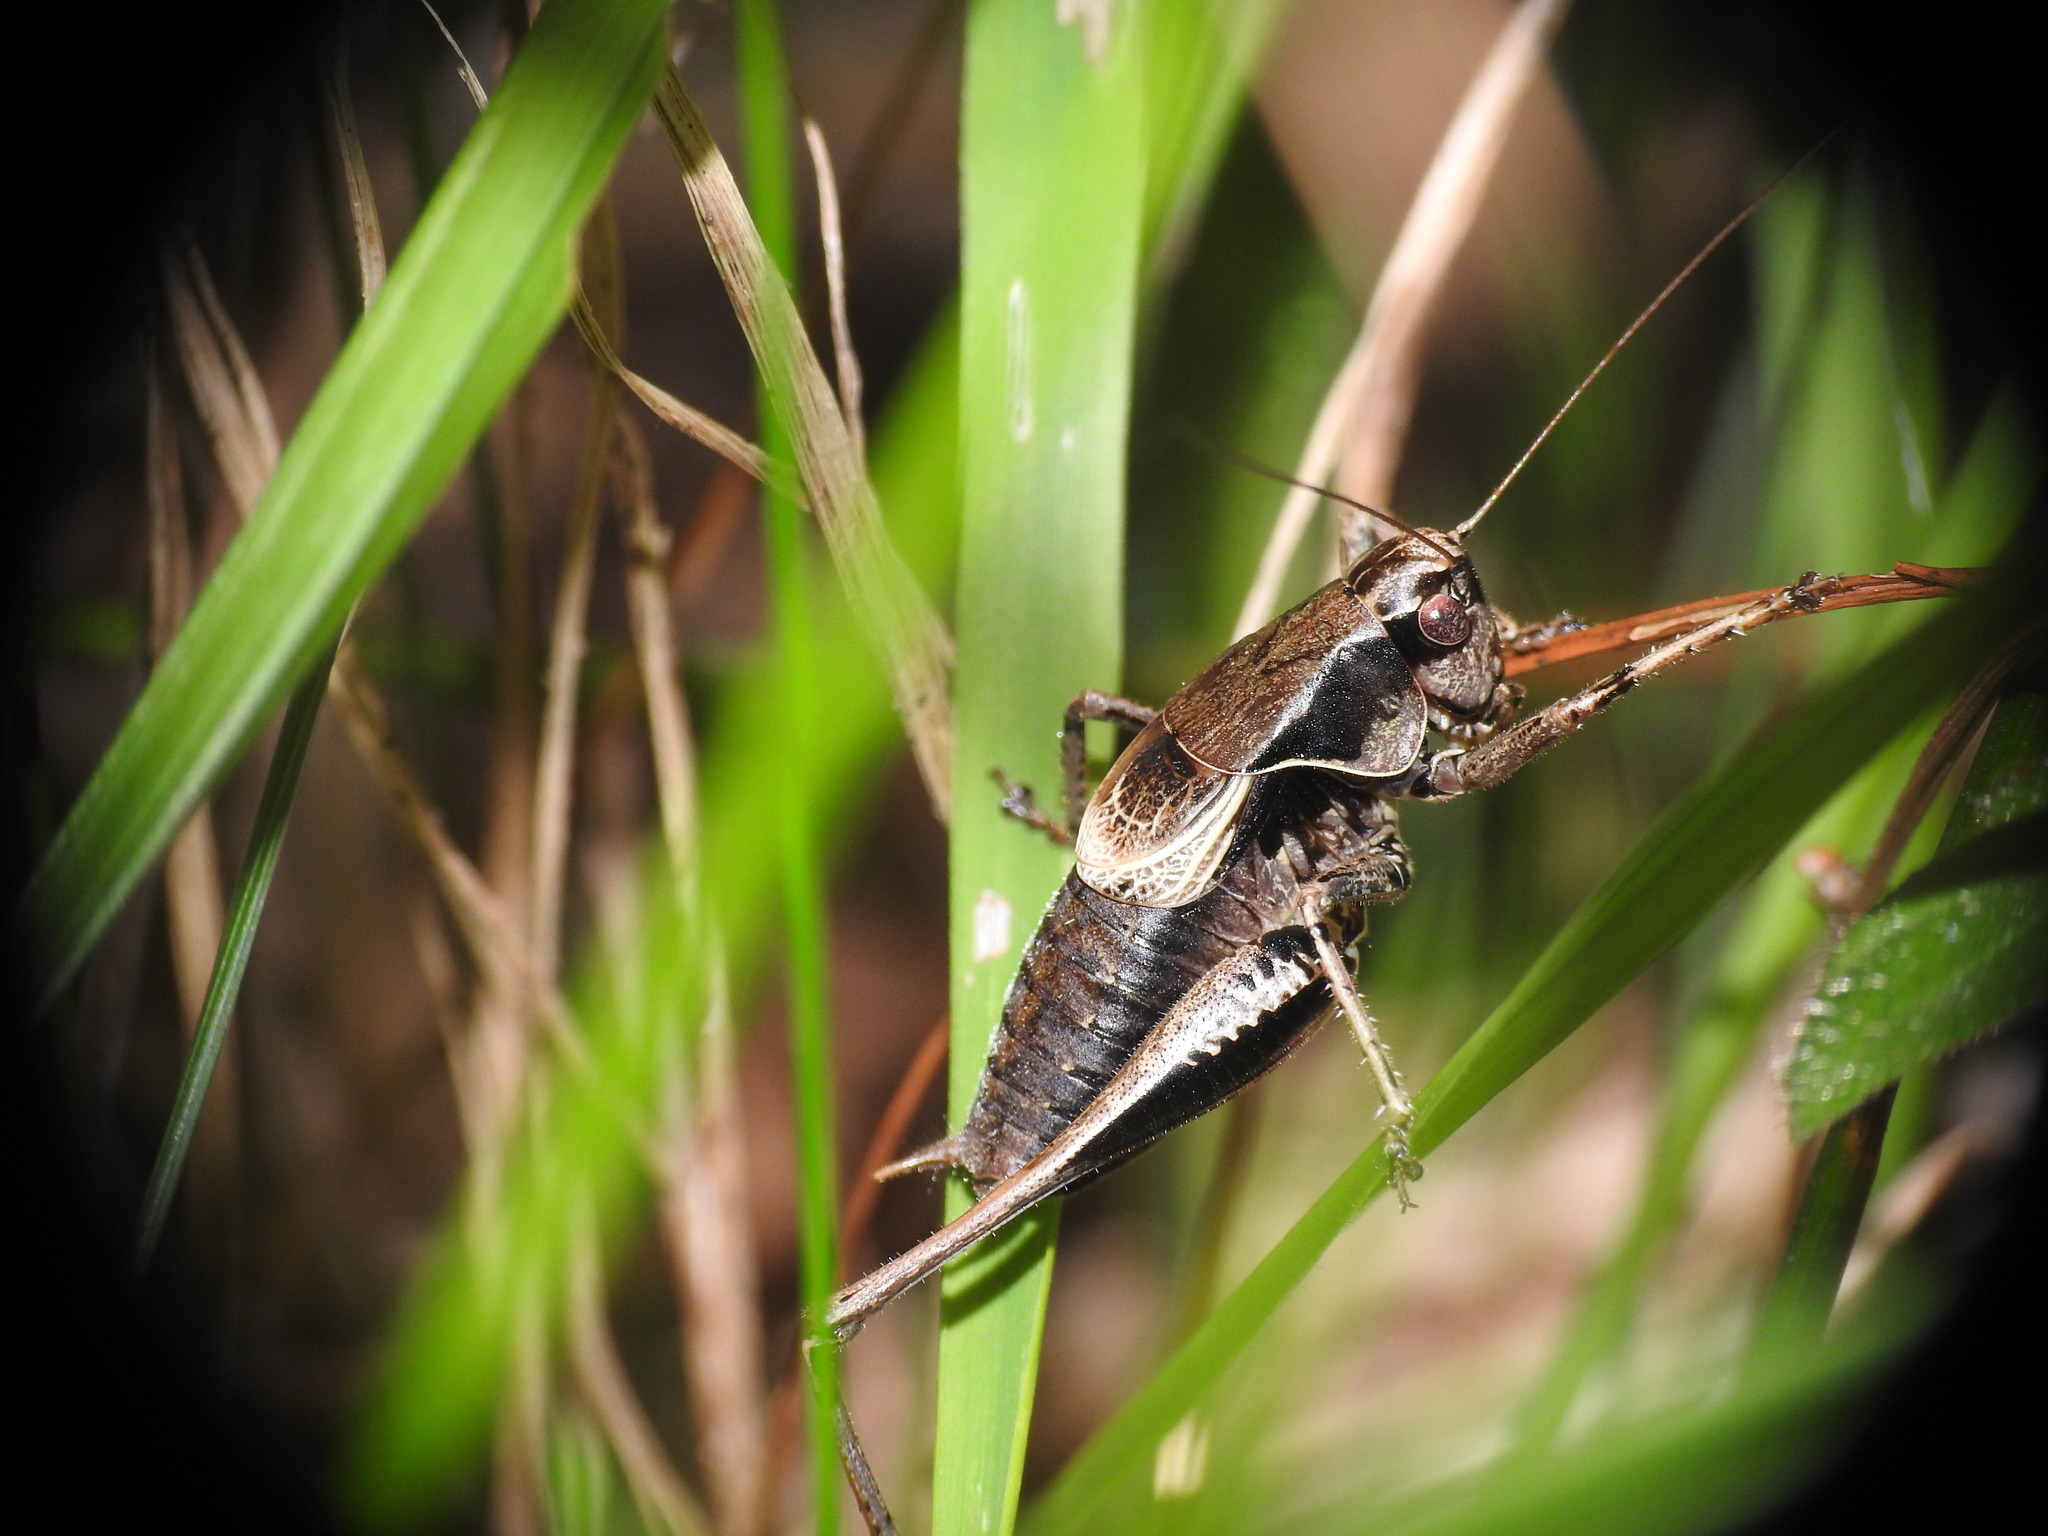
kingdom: Animalia
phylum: Arthropoda
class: Insecta
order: Orthoptera
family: Tettigoniidae
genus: Pholidoptera
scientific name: Pholidoptera griseoaptera
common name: Dark bush-cricket
